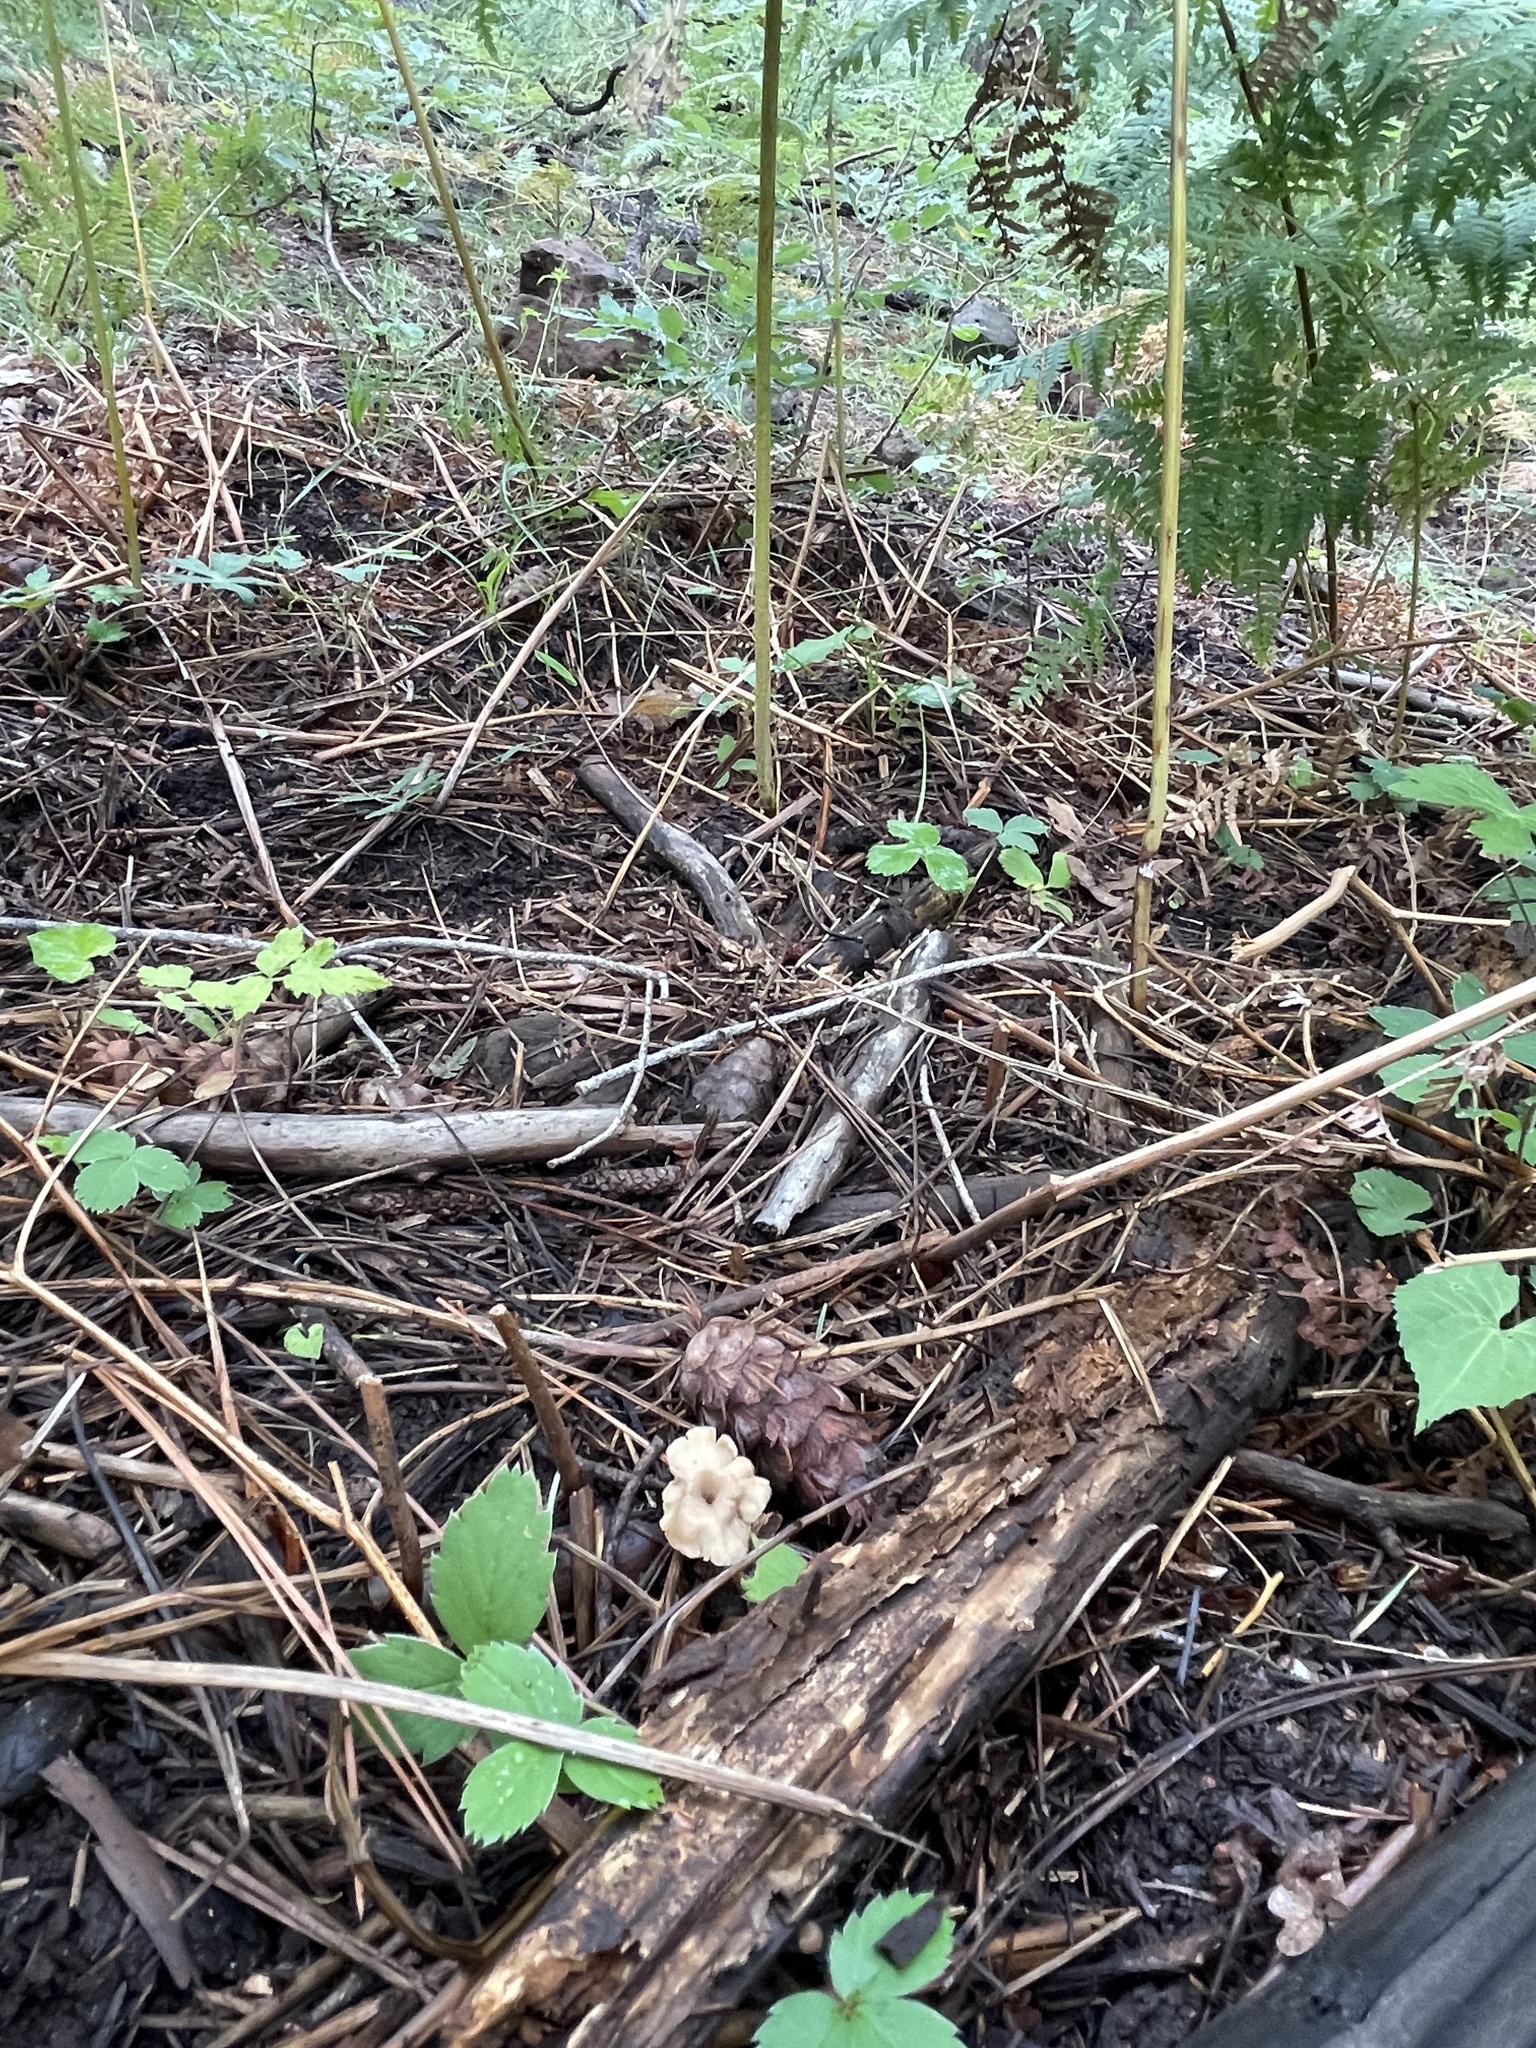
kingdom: Fungi
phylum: Basidiomycota
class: Agaricomycetes
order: Russulales
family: Auriscalpiaceae
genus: Lentinellus
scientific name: Lentinellus micheneri
